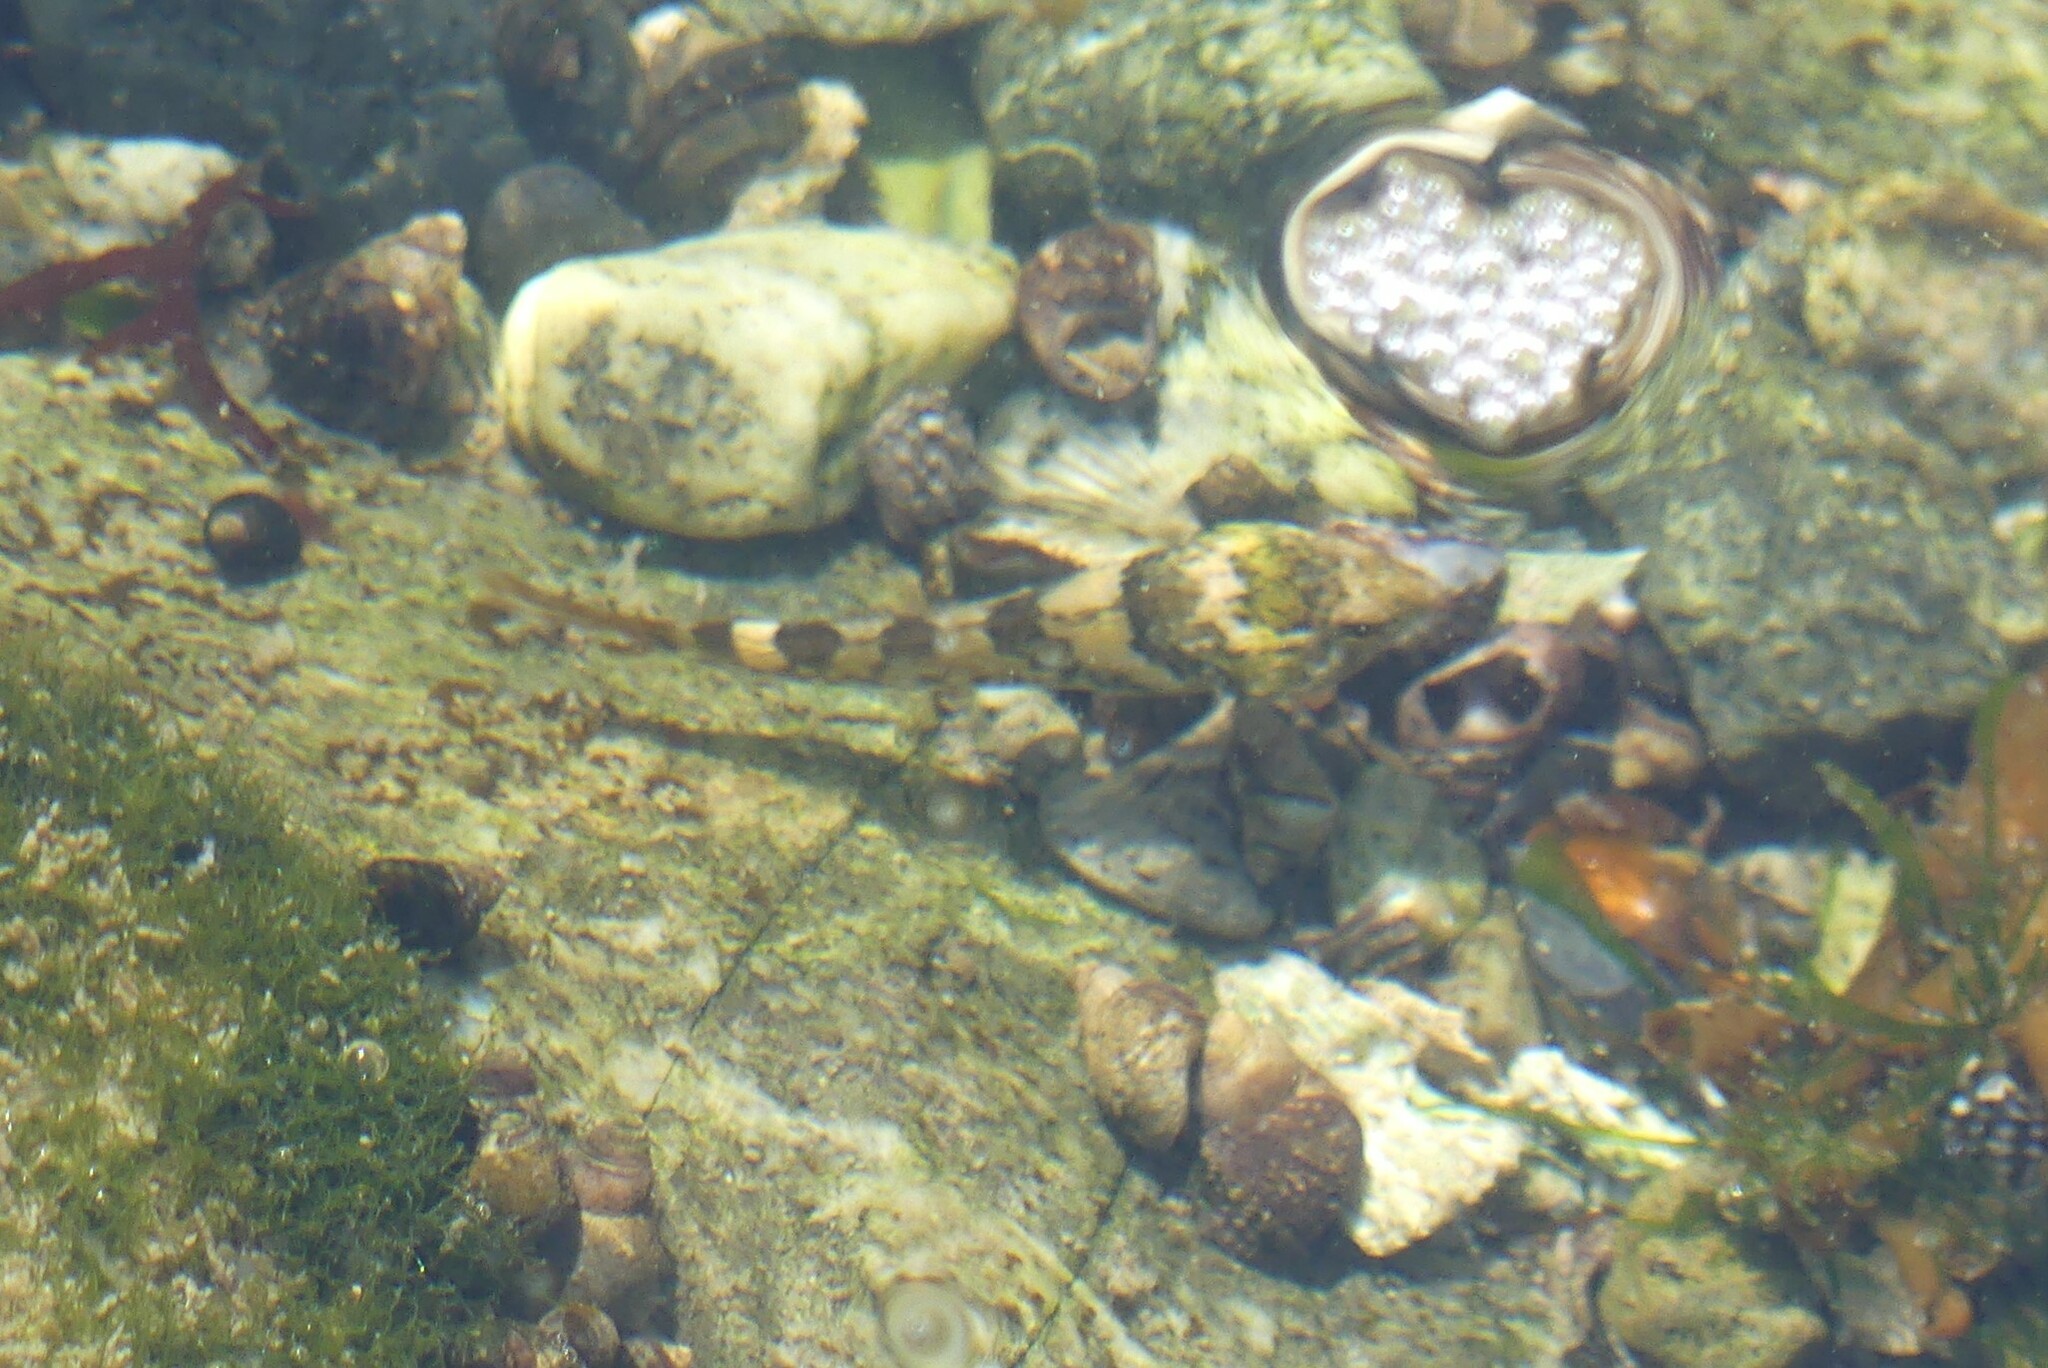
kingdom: Animalia
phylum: Chordata
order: Scorpaeniformes
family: Cottidae
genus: Oligocottus
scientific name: Oligocottus maculosus
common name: Tidepool sculpin
